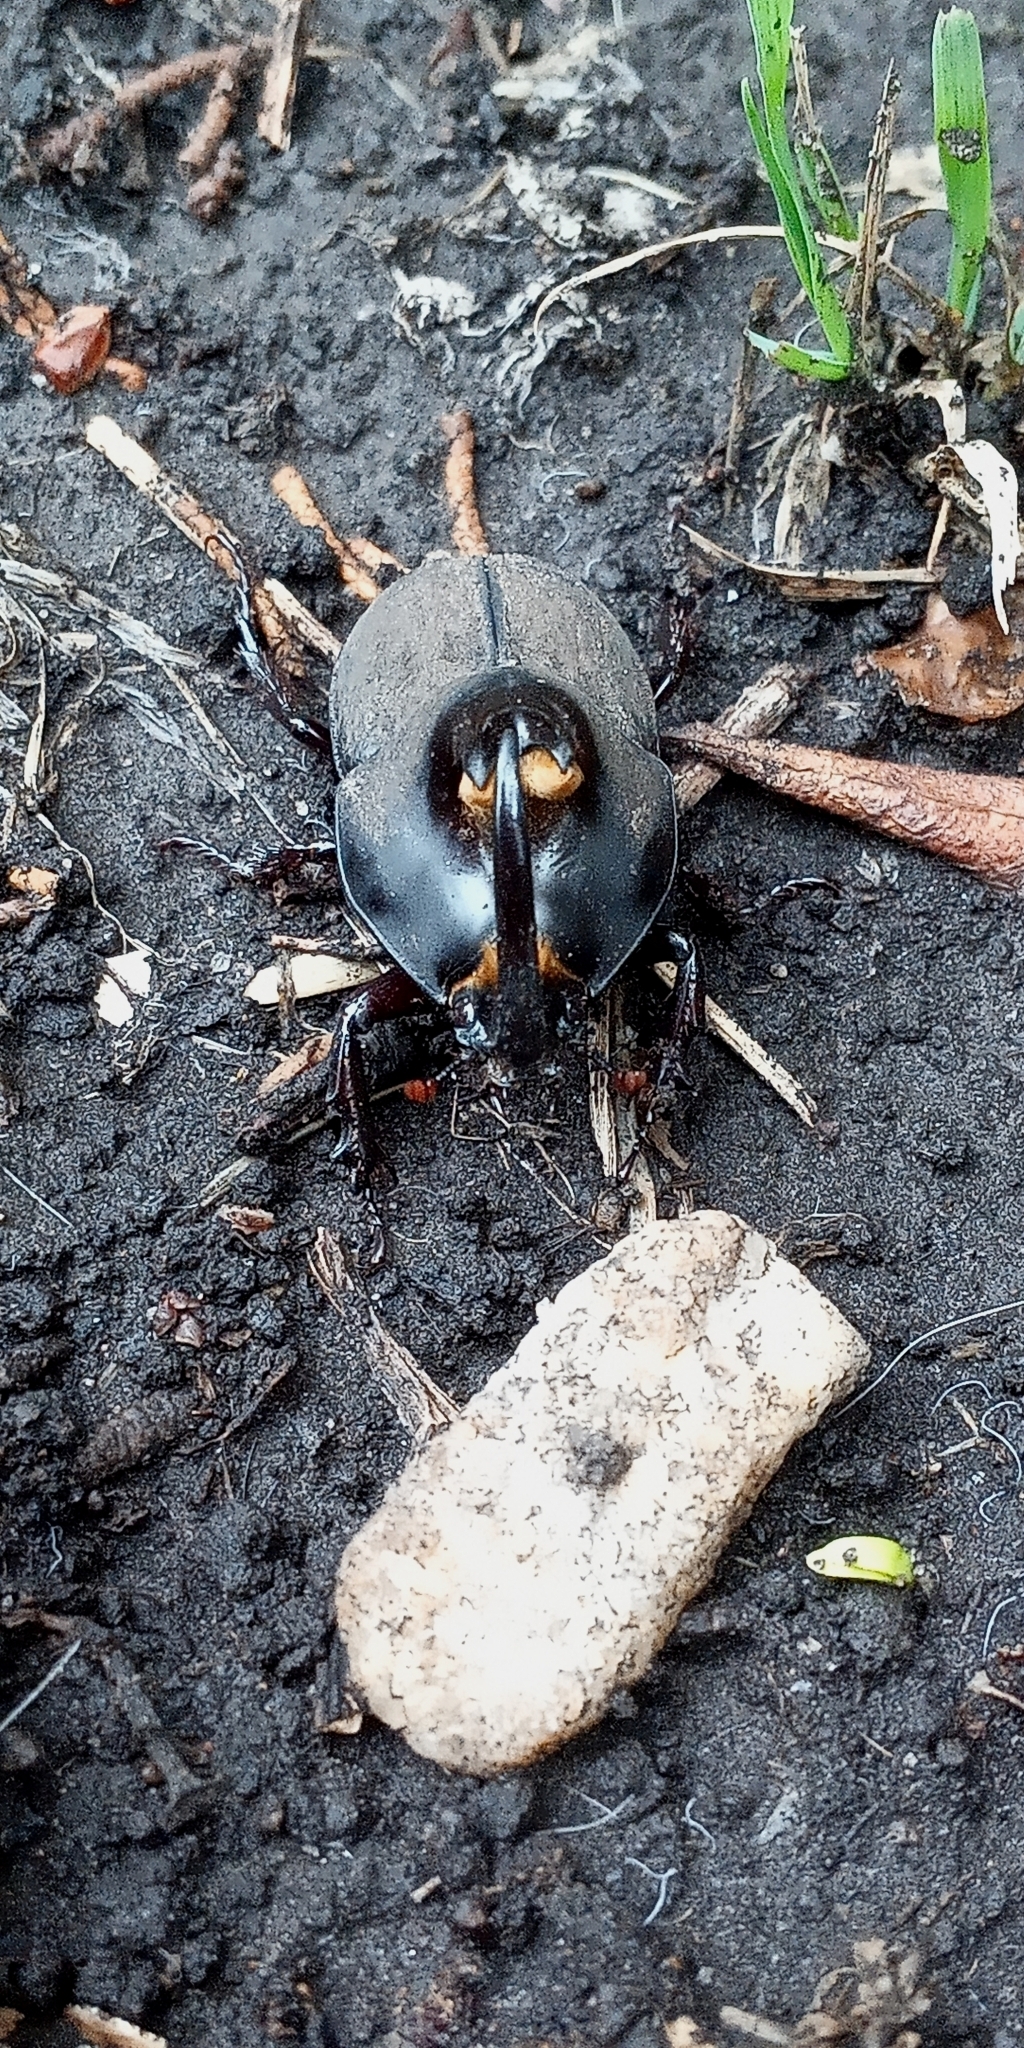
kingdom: Animalia
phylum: Arthropoda
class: Insecta
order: Coleoptera
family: Scarabaeidae
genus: Diloboderus
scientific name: Diloboderus abderus
